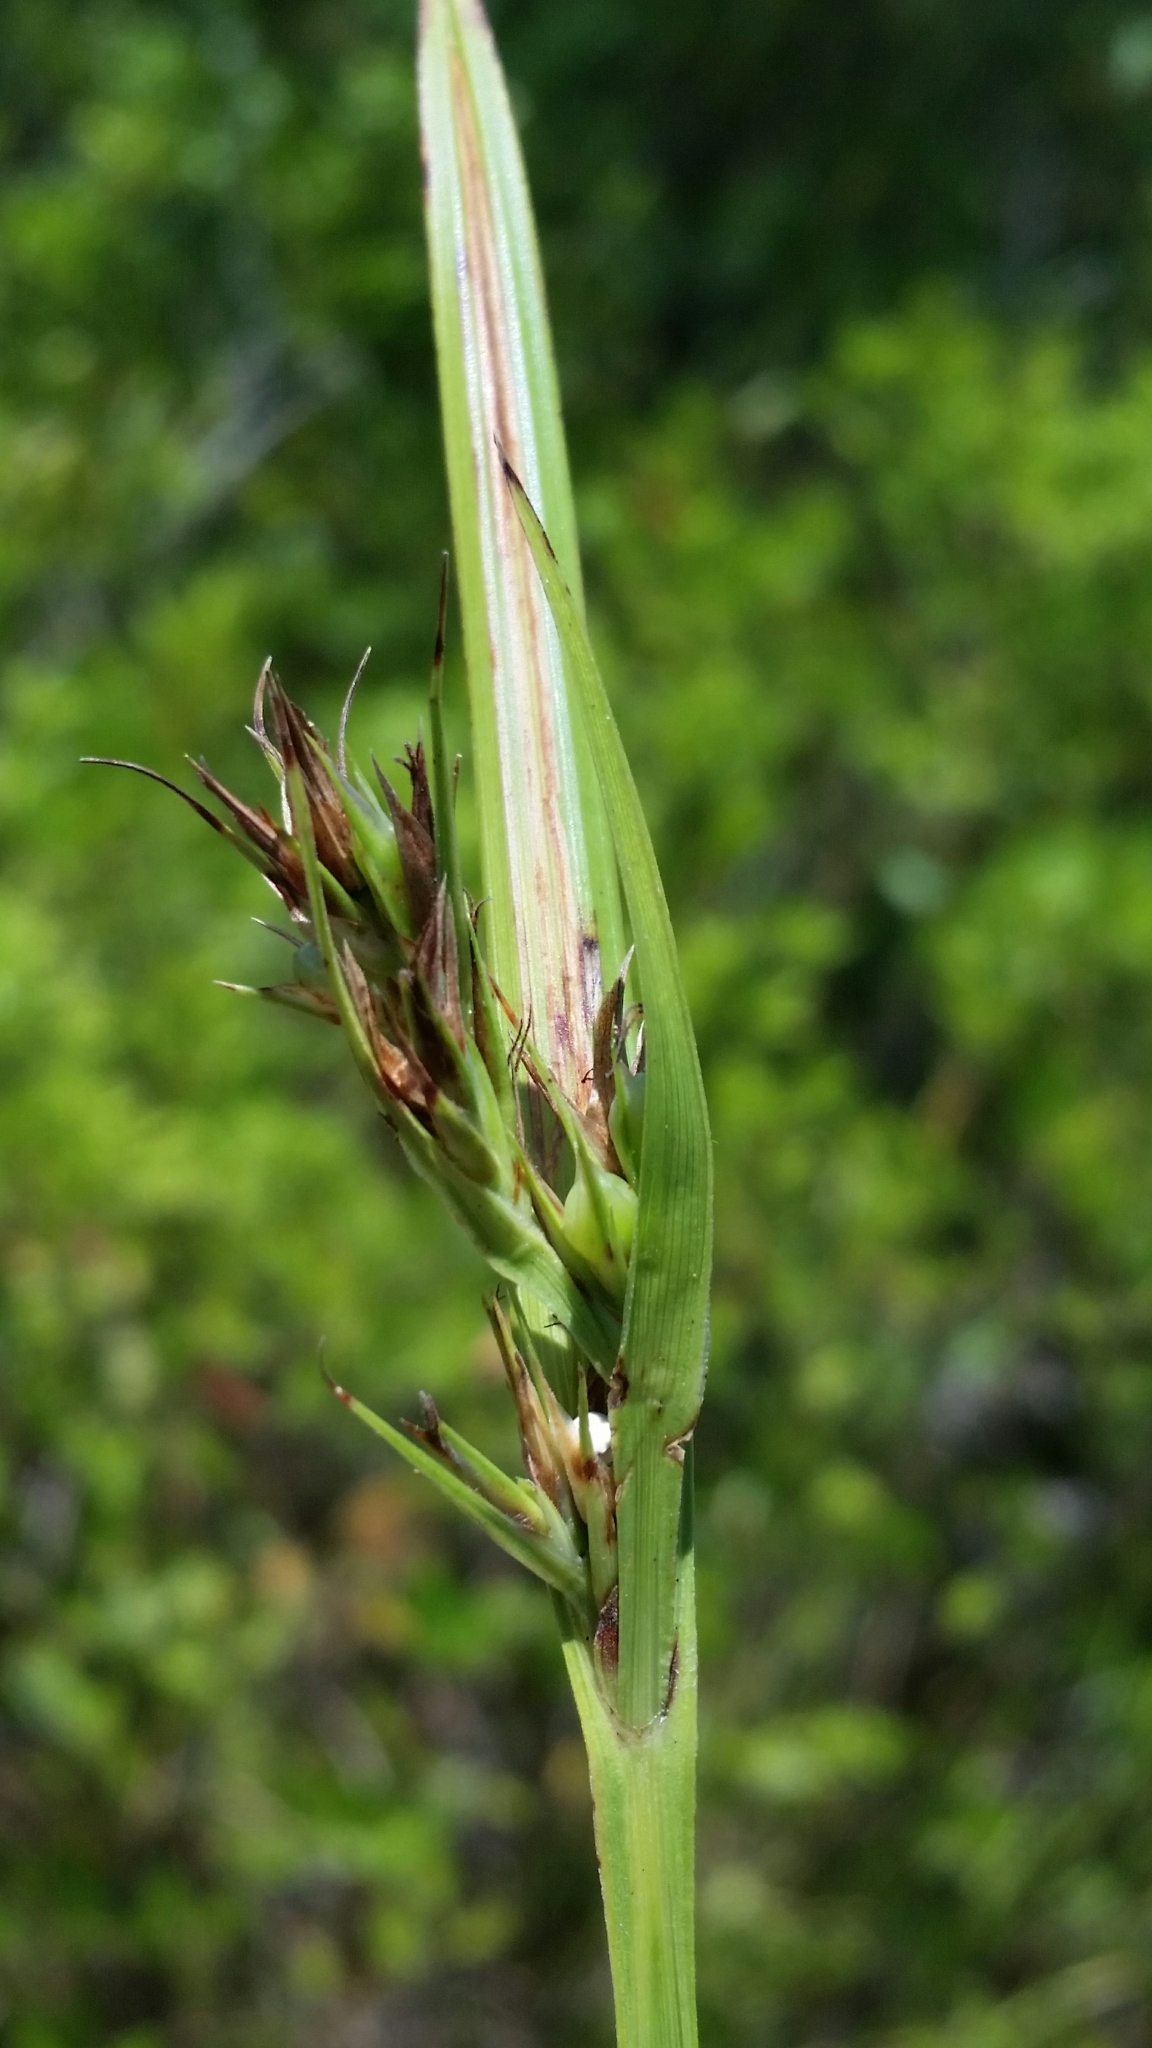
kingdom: Plantae
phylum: Tracheophyta
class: Liliopsida
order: Poales
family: Cyperaceae
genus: Scleria
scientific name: Scleria triglomerata
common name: Whip nutrush
